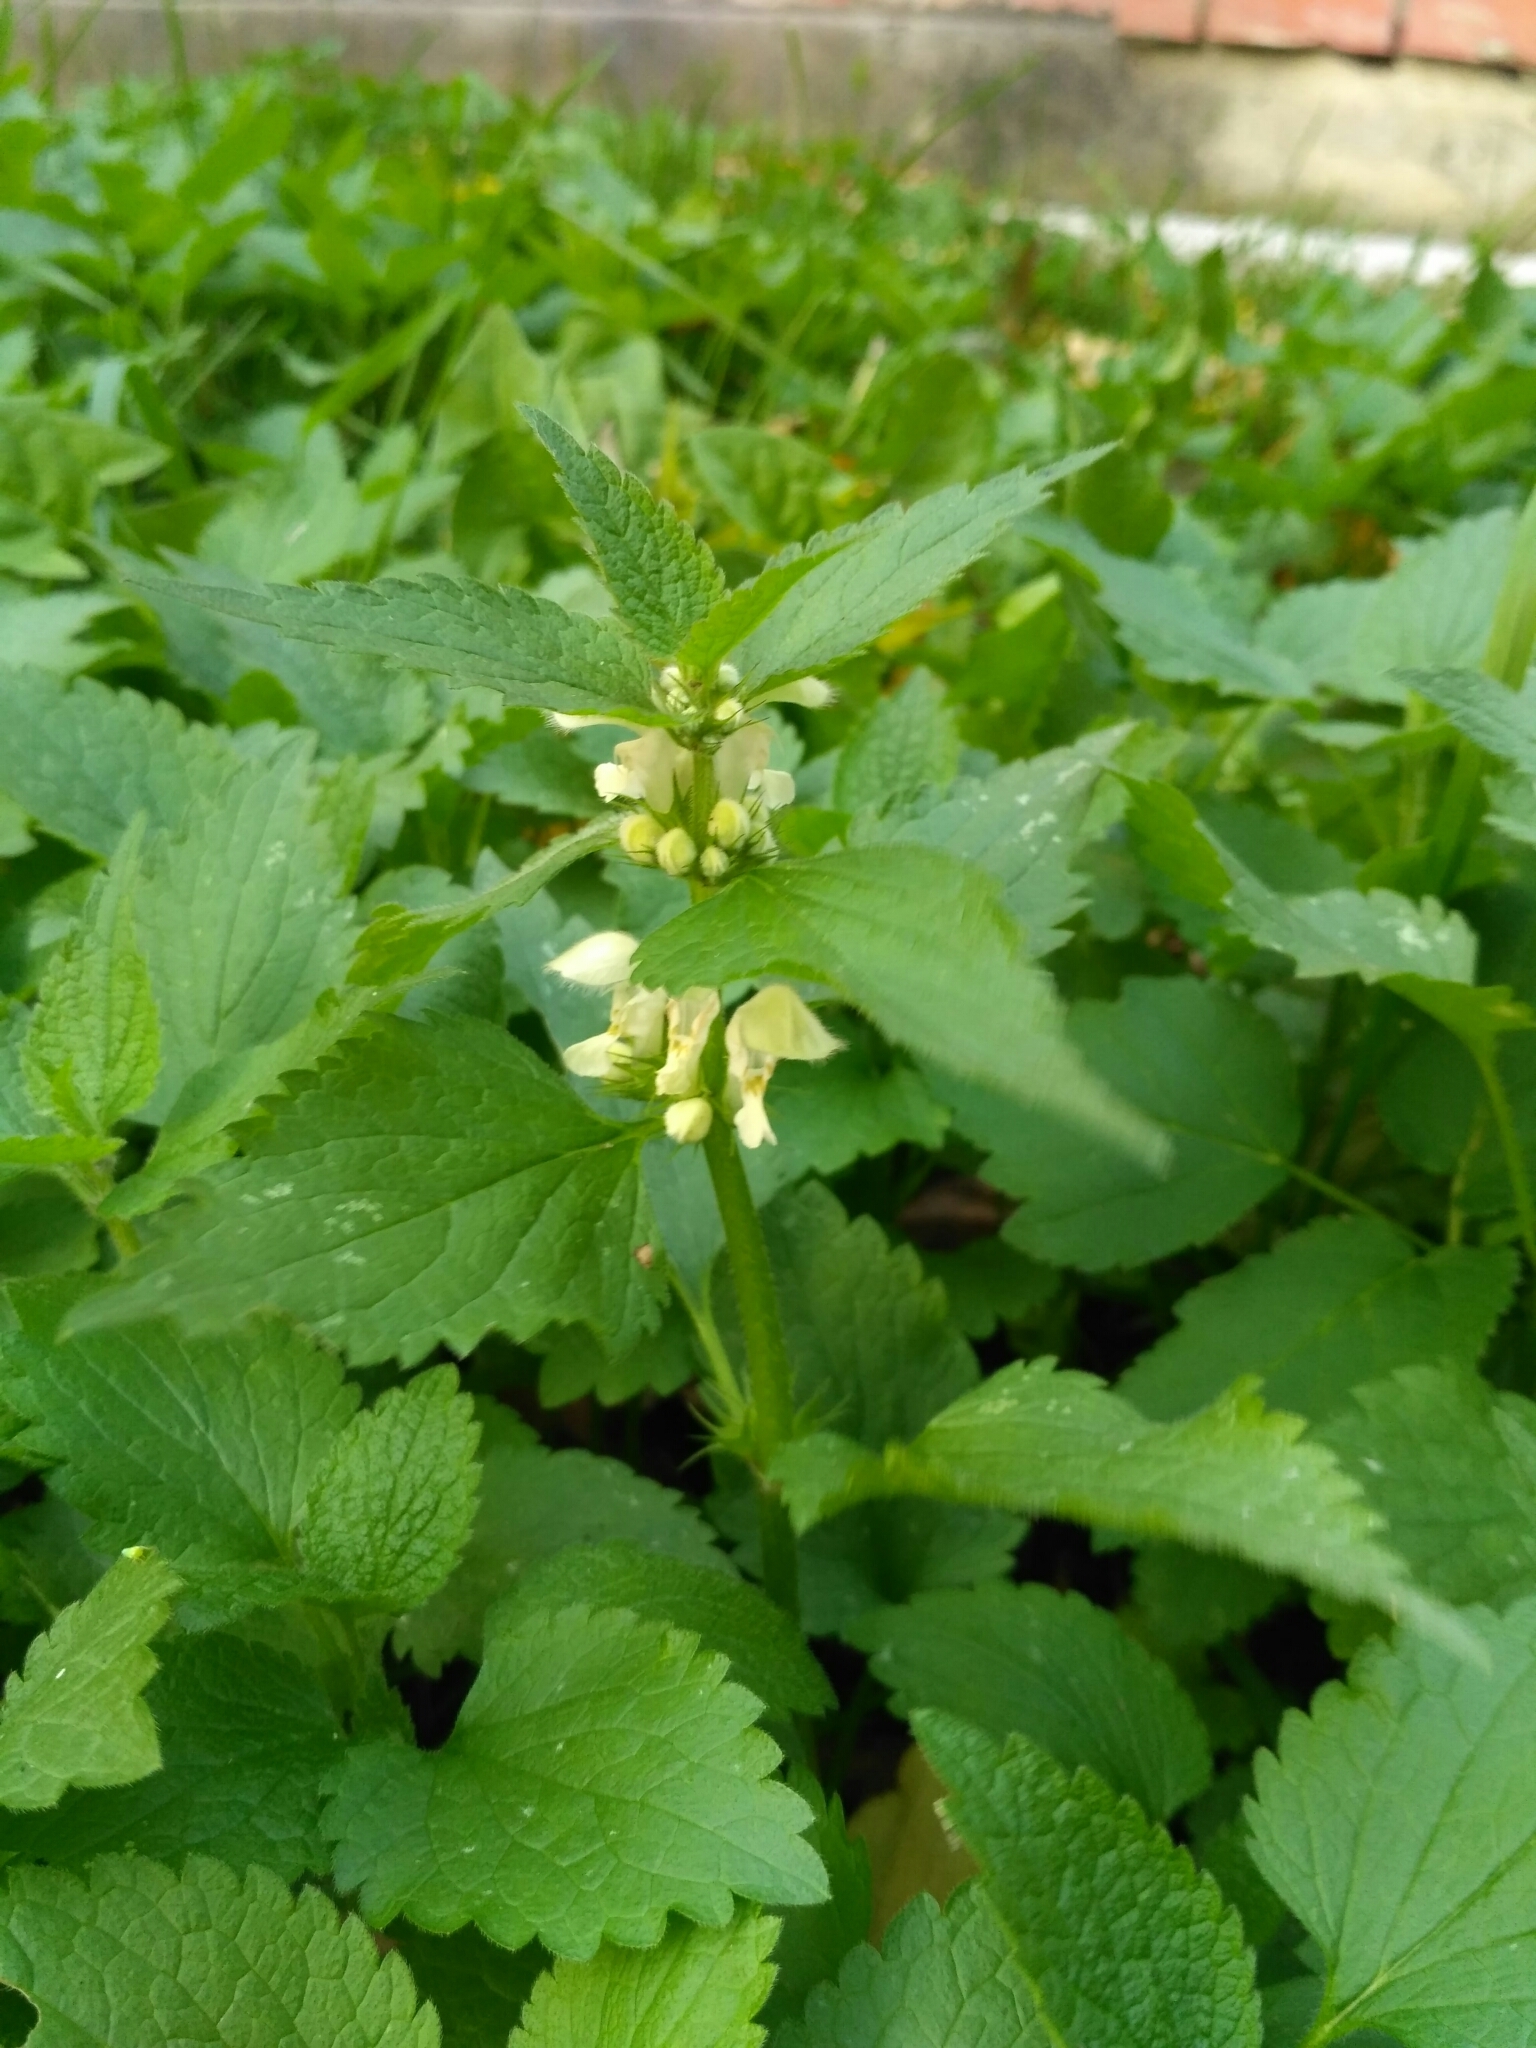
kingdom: Plantae
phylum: Tracheophyta
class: Magnoliopsida
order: Lamiales
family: Lamiaceae
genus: Lamium
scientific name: Lamium album
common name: White dead-nettle
